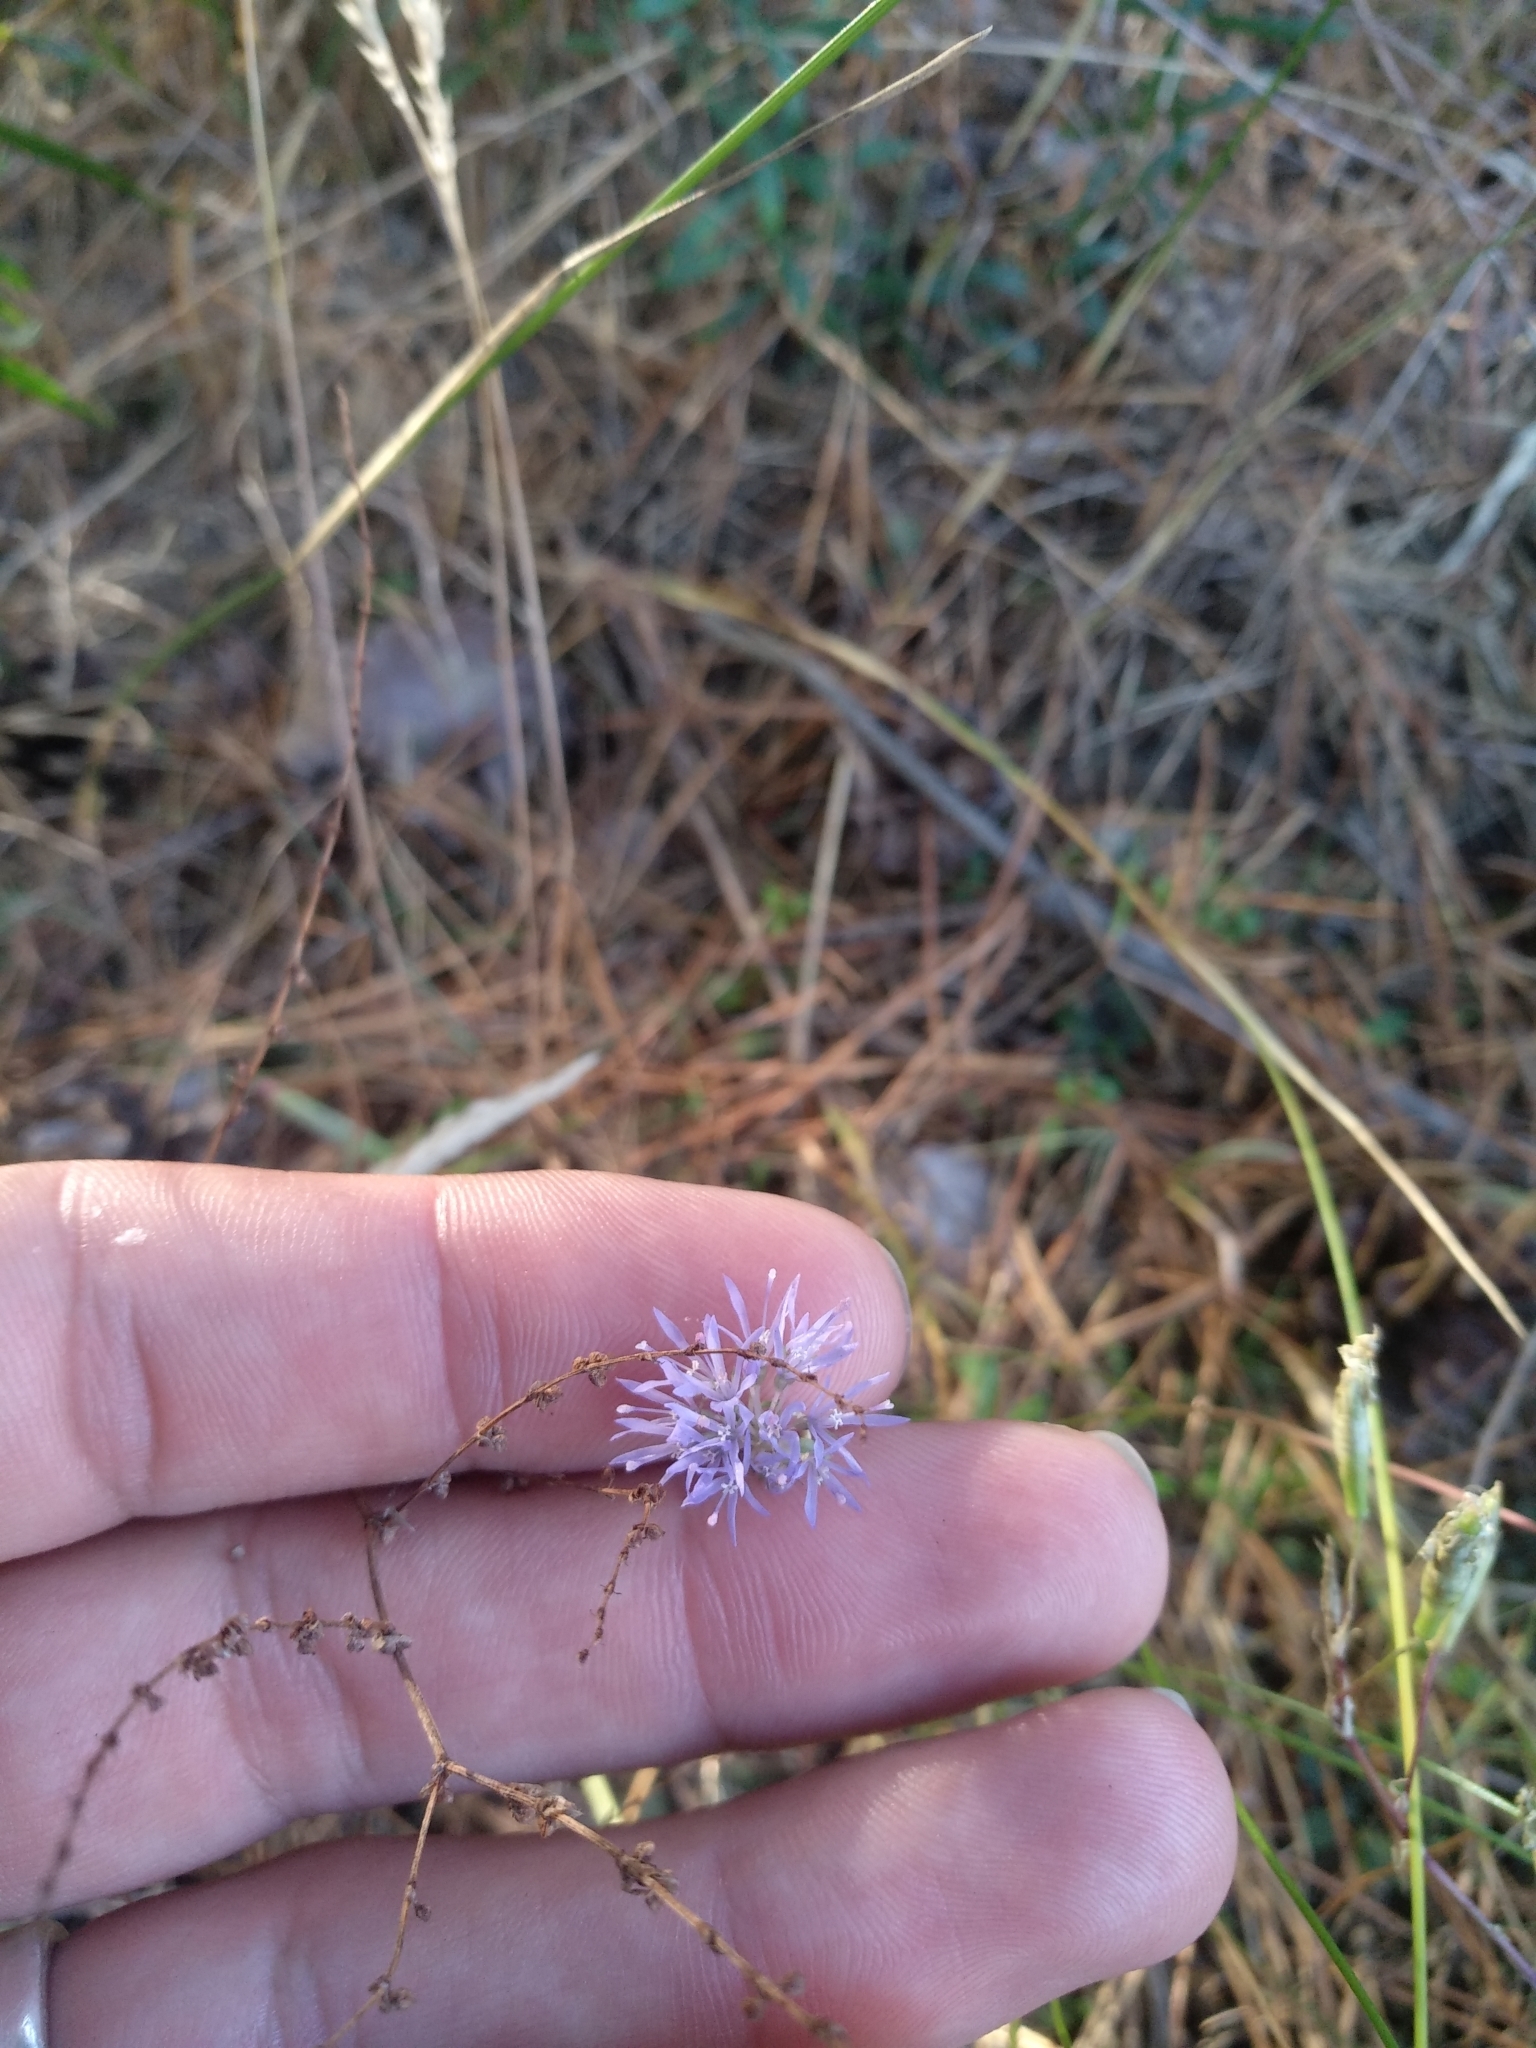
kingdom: Plantae
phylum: Tracheophyta
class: Magnoliopsida
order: Asterales
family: Campanulaceae
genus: Jasione
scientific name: Jasione montana
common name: Sheep's-bit
